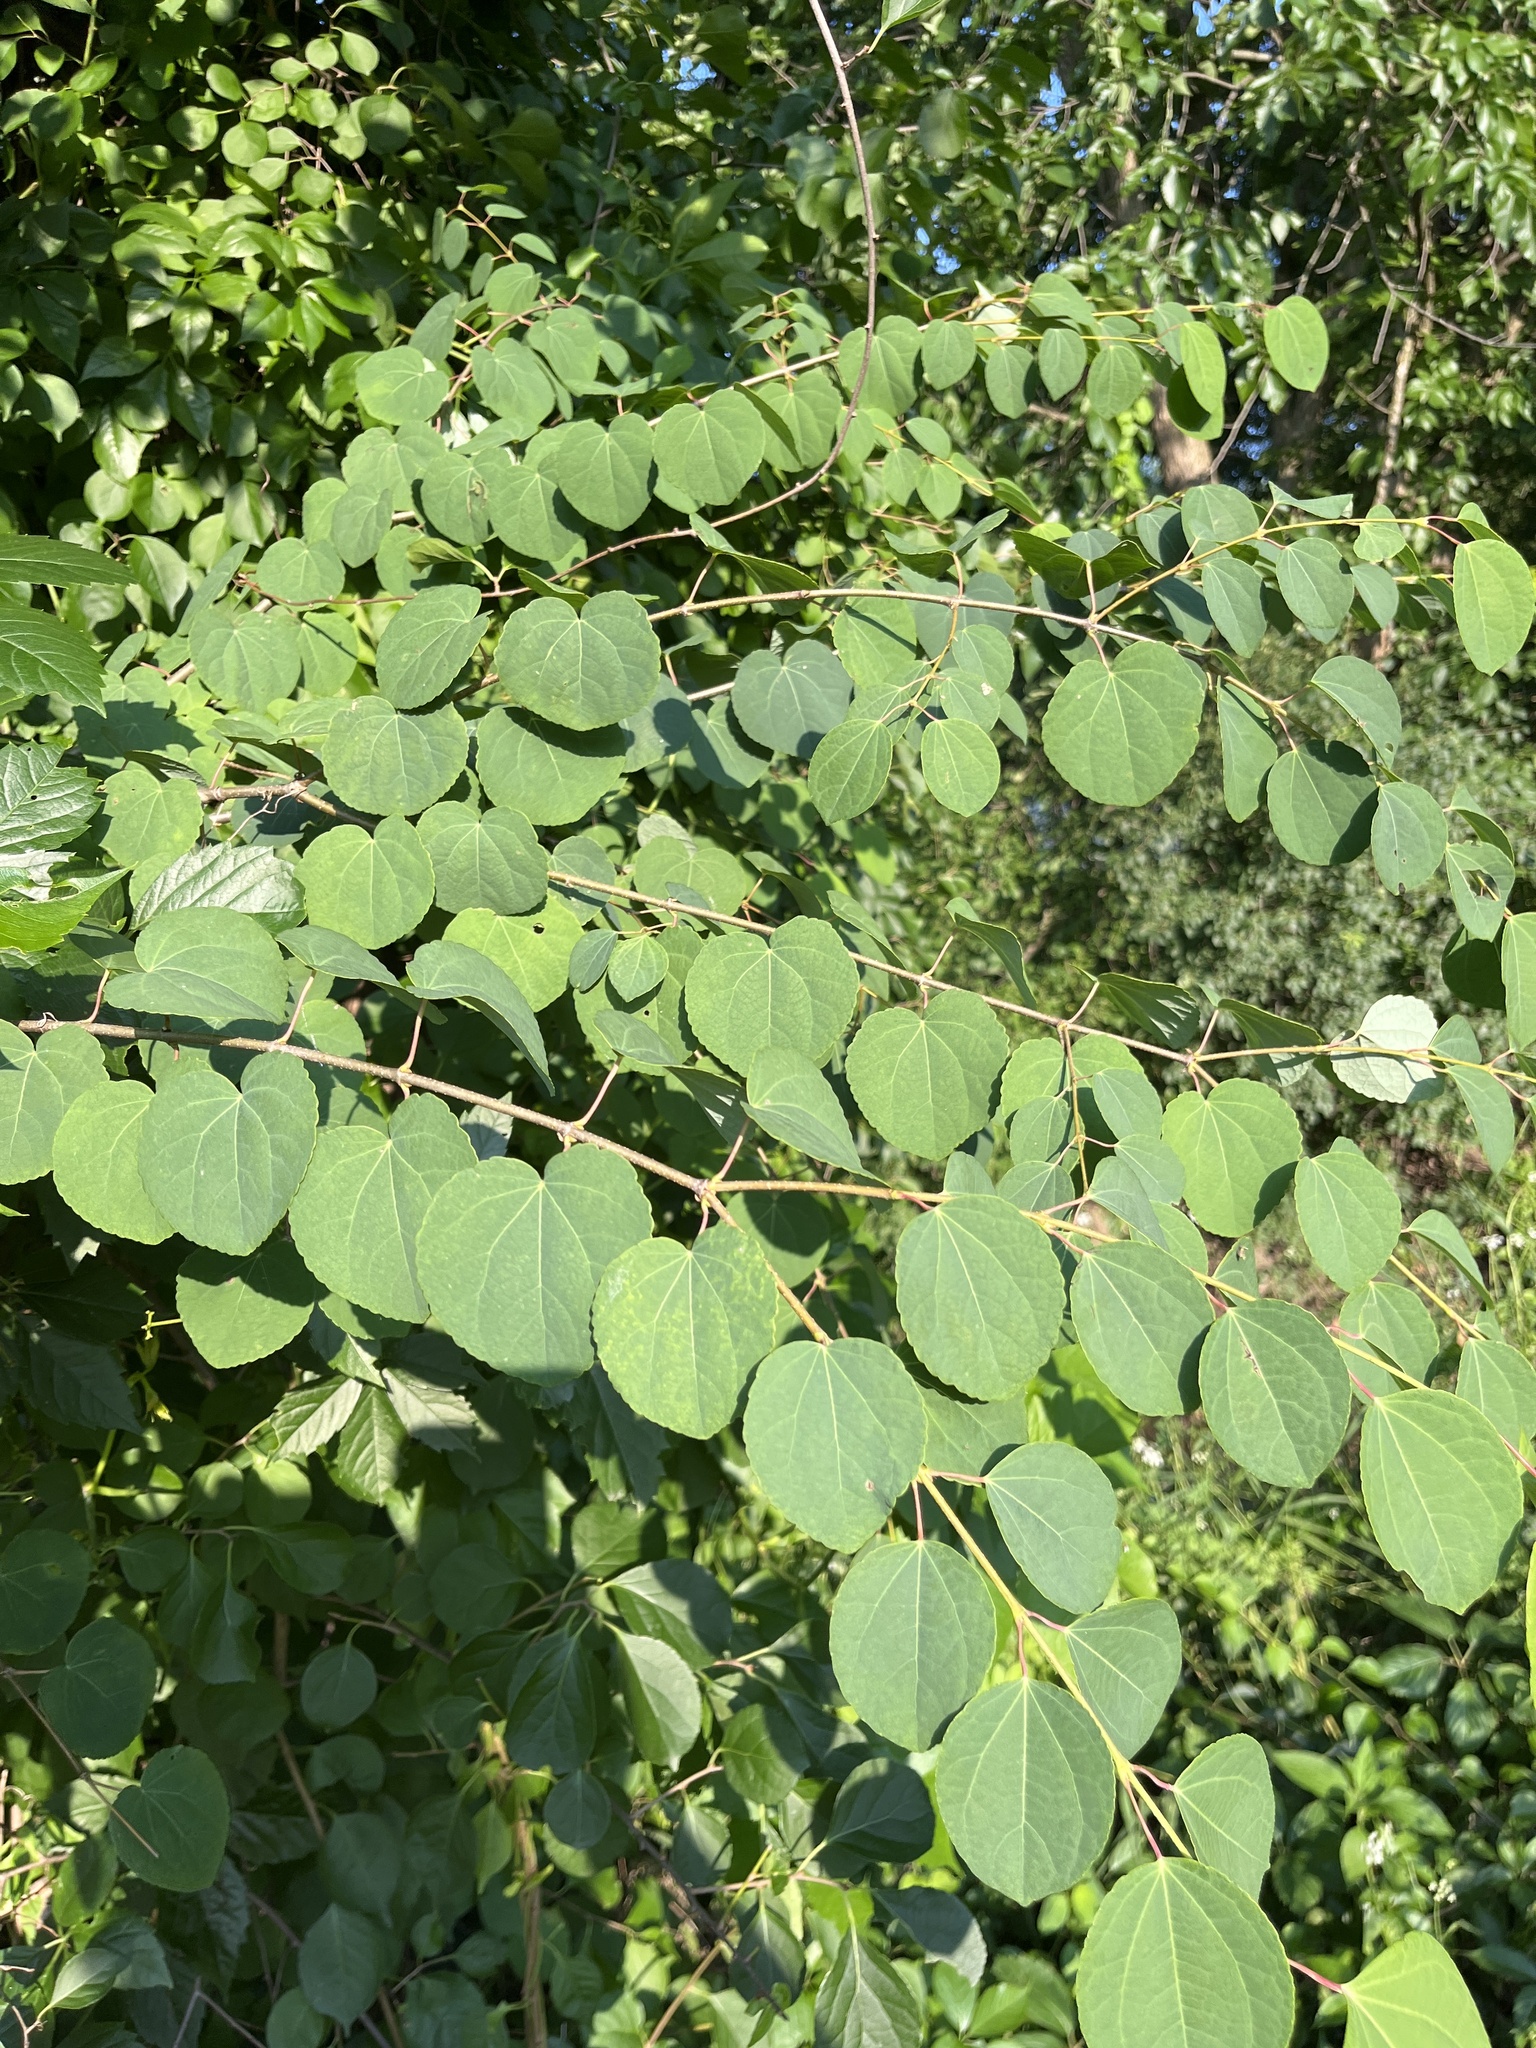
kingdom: Plantae
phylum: Tracheophyta
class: Magnoliopsida
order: Saxifragales
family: Cercidiphyllaceae
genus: Cercidiphyllum
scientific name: Cercidiphyllum japonicum
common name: Katsura tree
